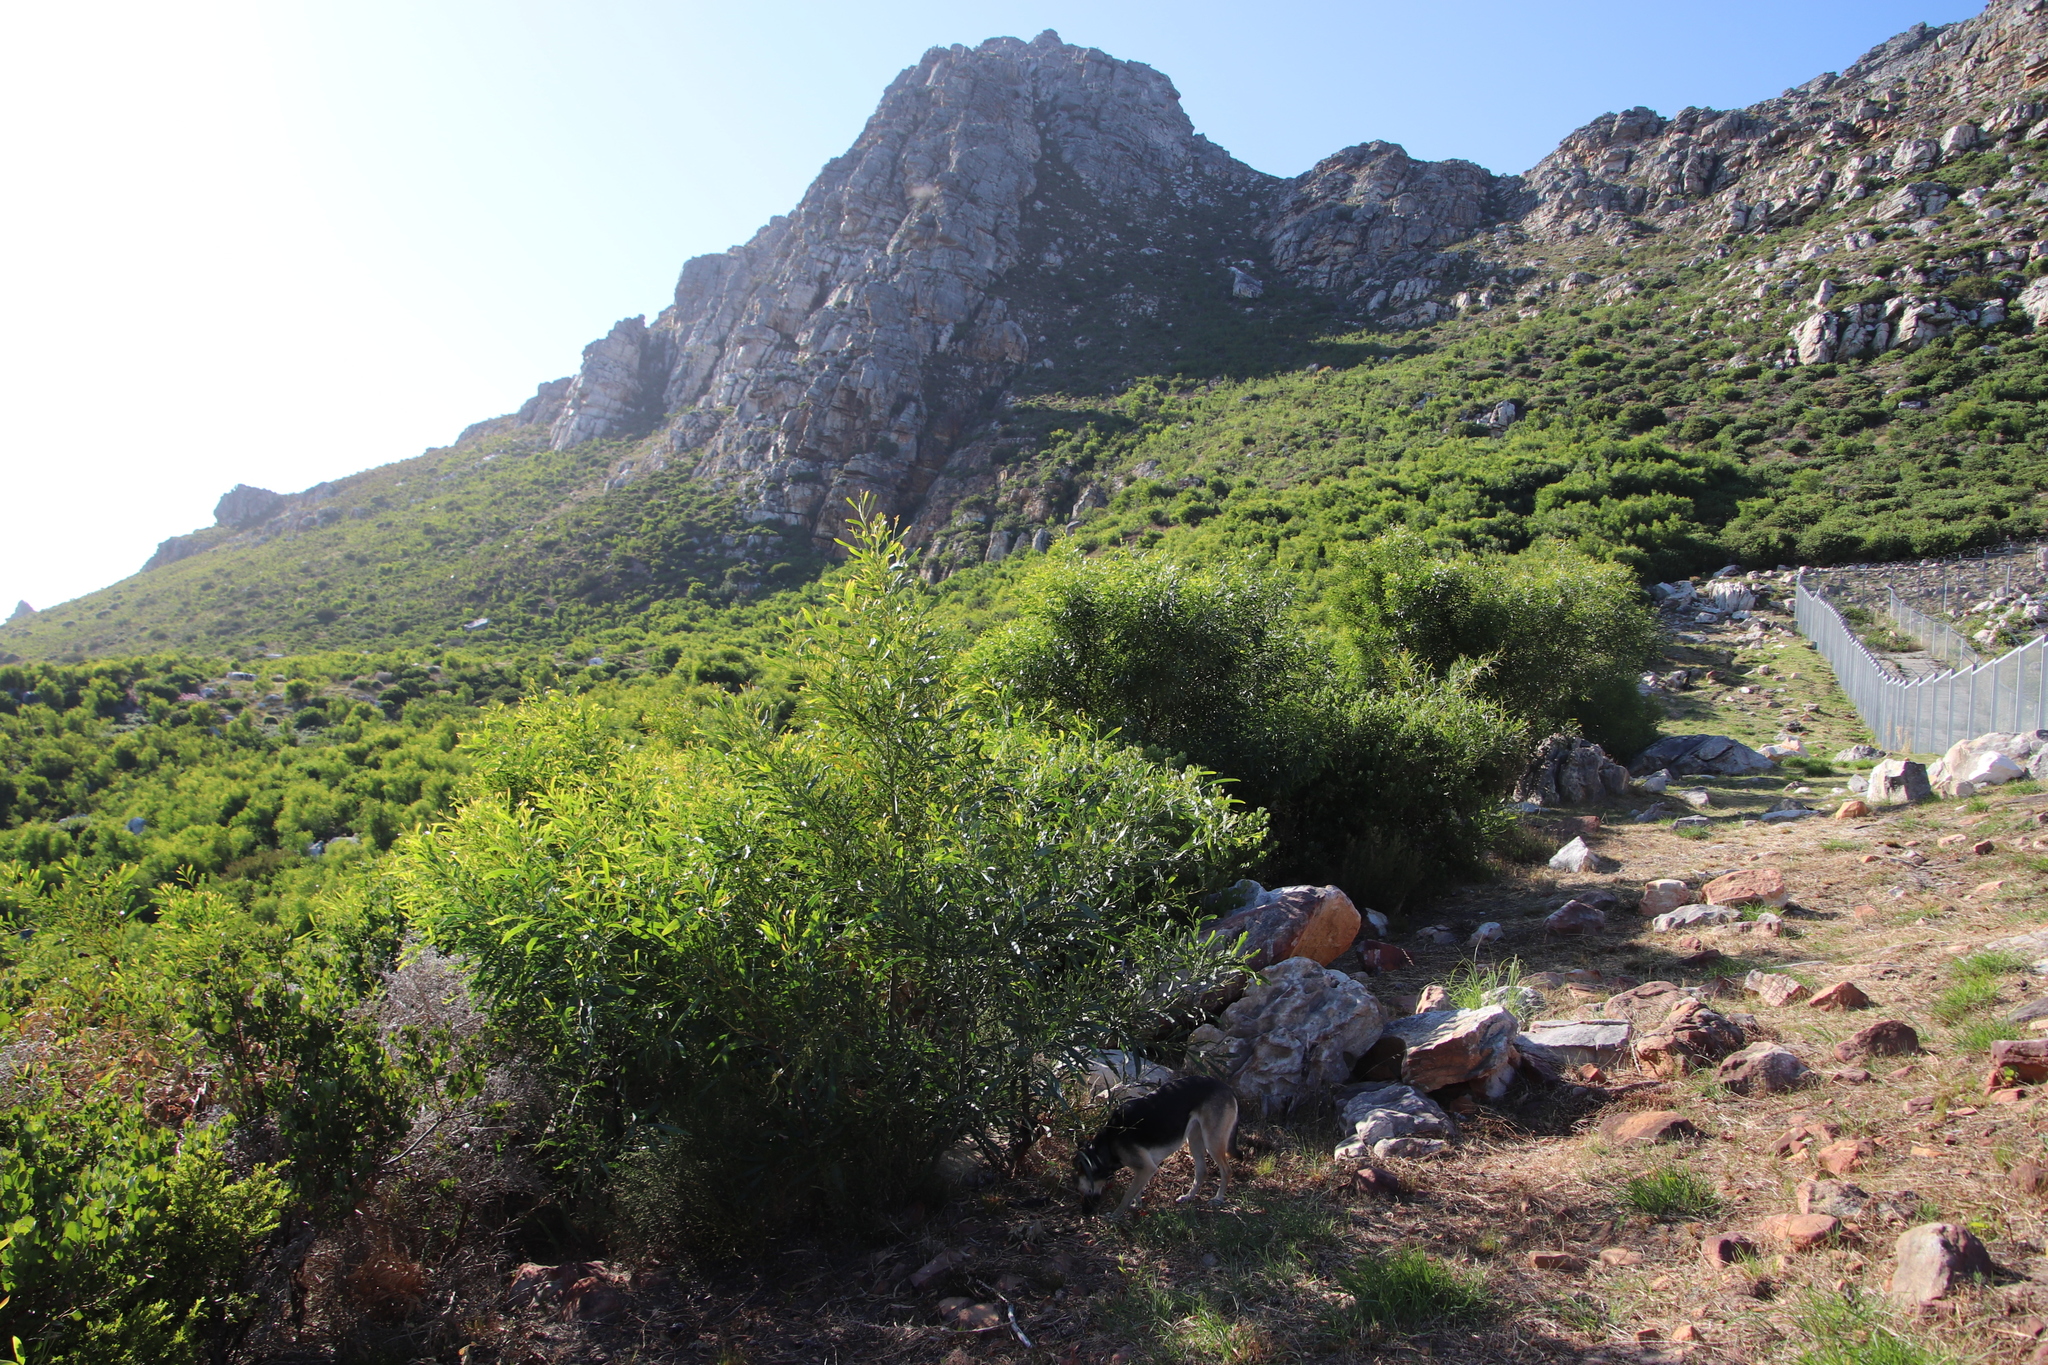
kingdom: Plantae
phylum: Tracheophyta
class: Magnoliopsida
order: Fabales
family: Fabaceae
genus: Acacia
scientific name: Acacia saligna
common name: Orange wattle
